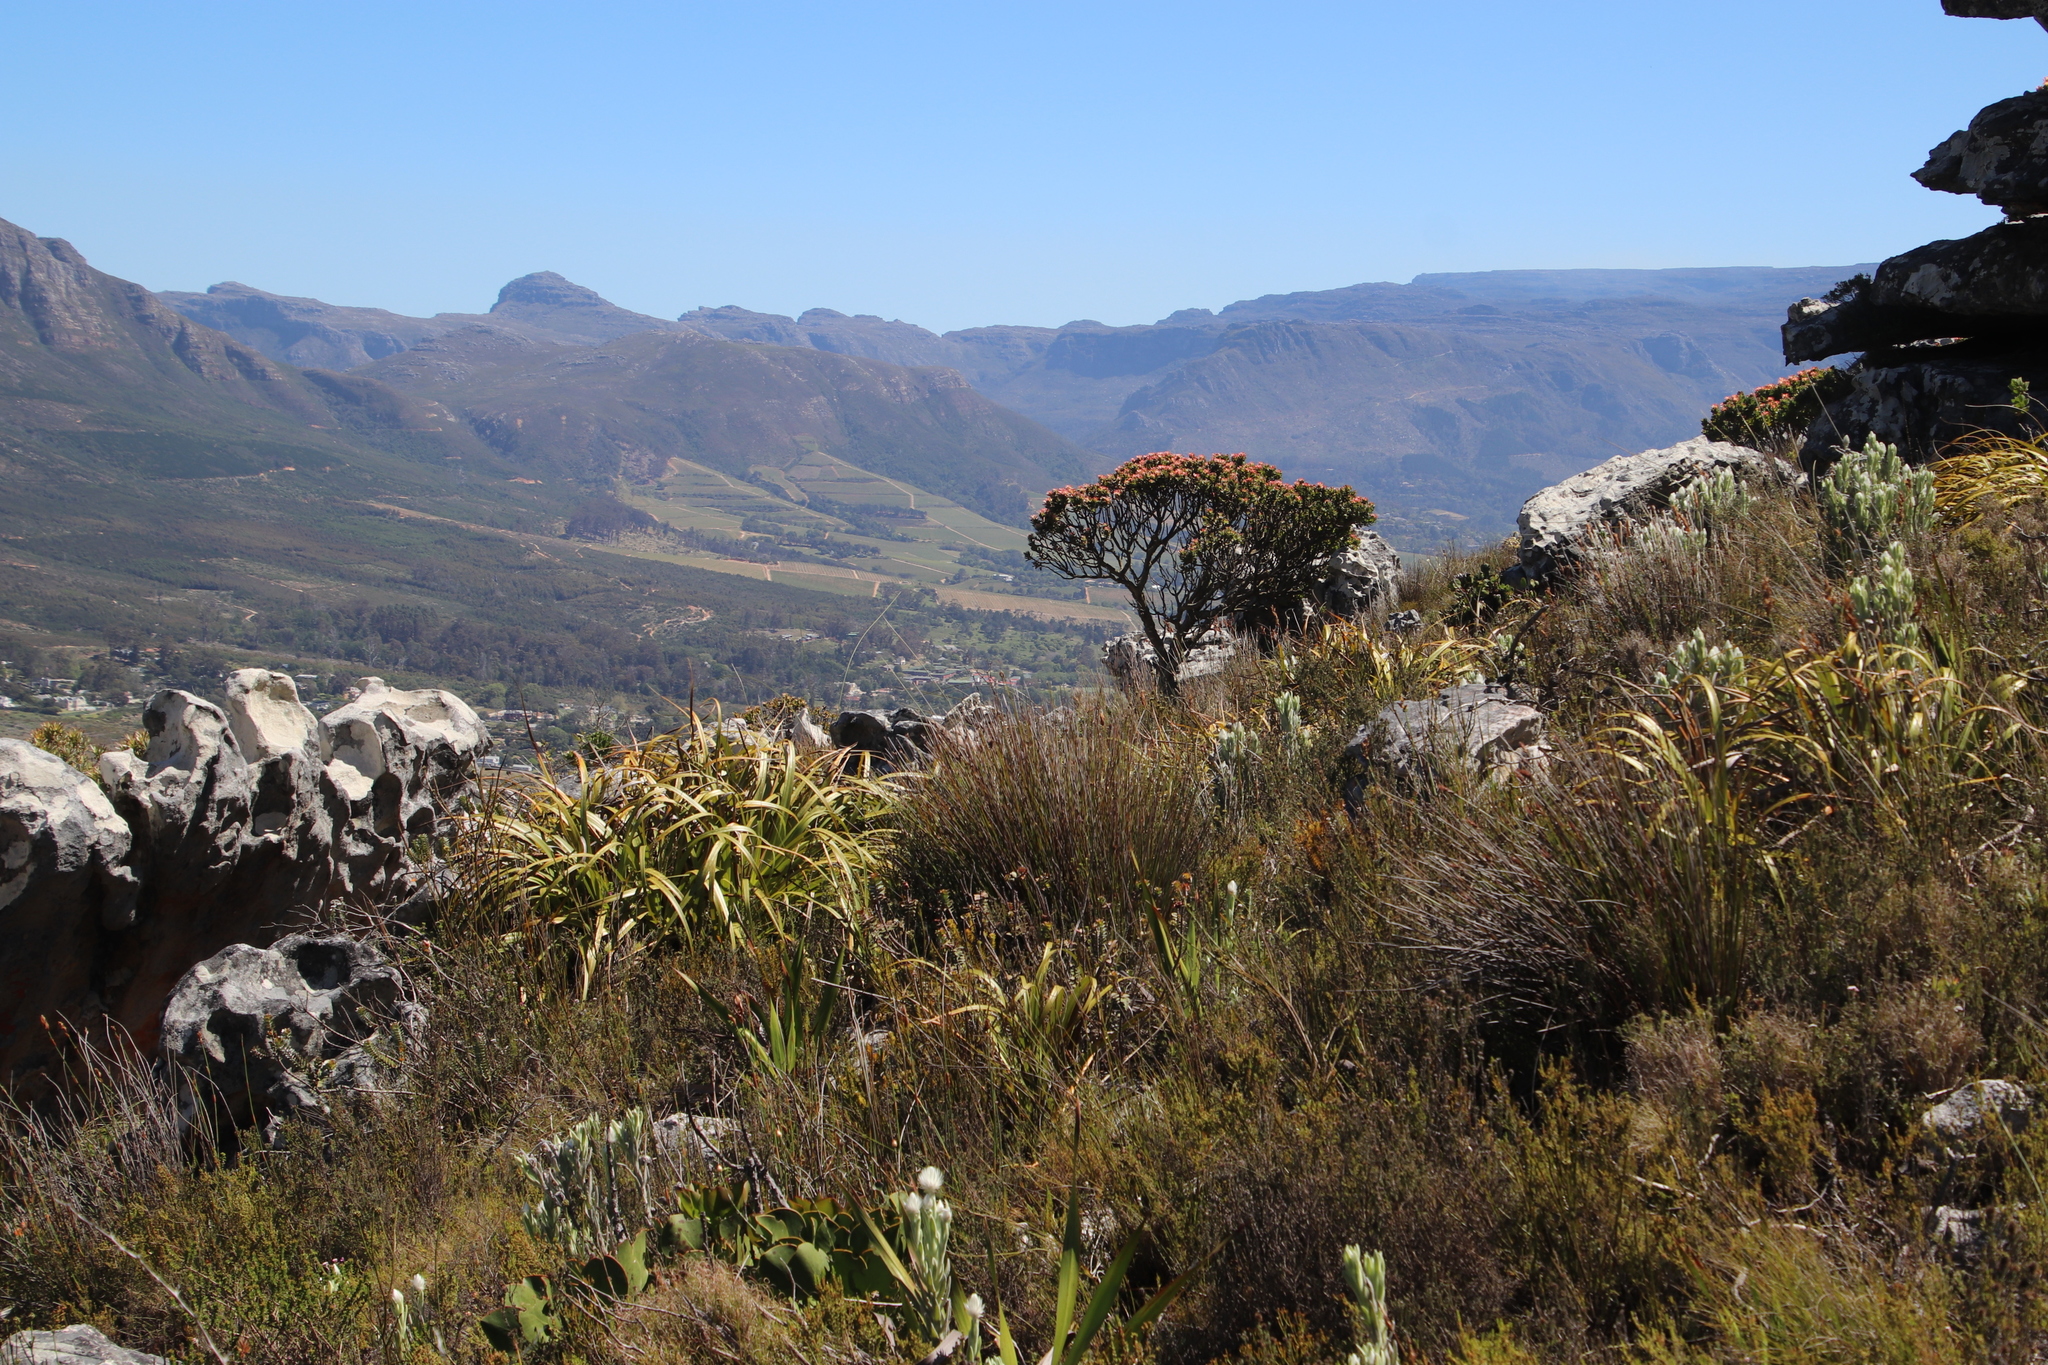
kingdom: Plantae
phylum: Tracheophyta
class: Magnoliopsida
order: Proteales
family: Proteaceae
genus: Mimetes
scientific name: Mimetes fimbriifolius
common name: Fringed bottlebrush
